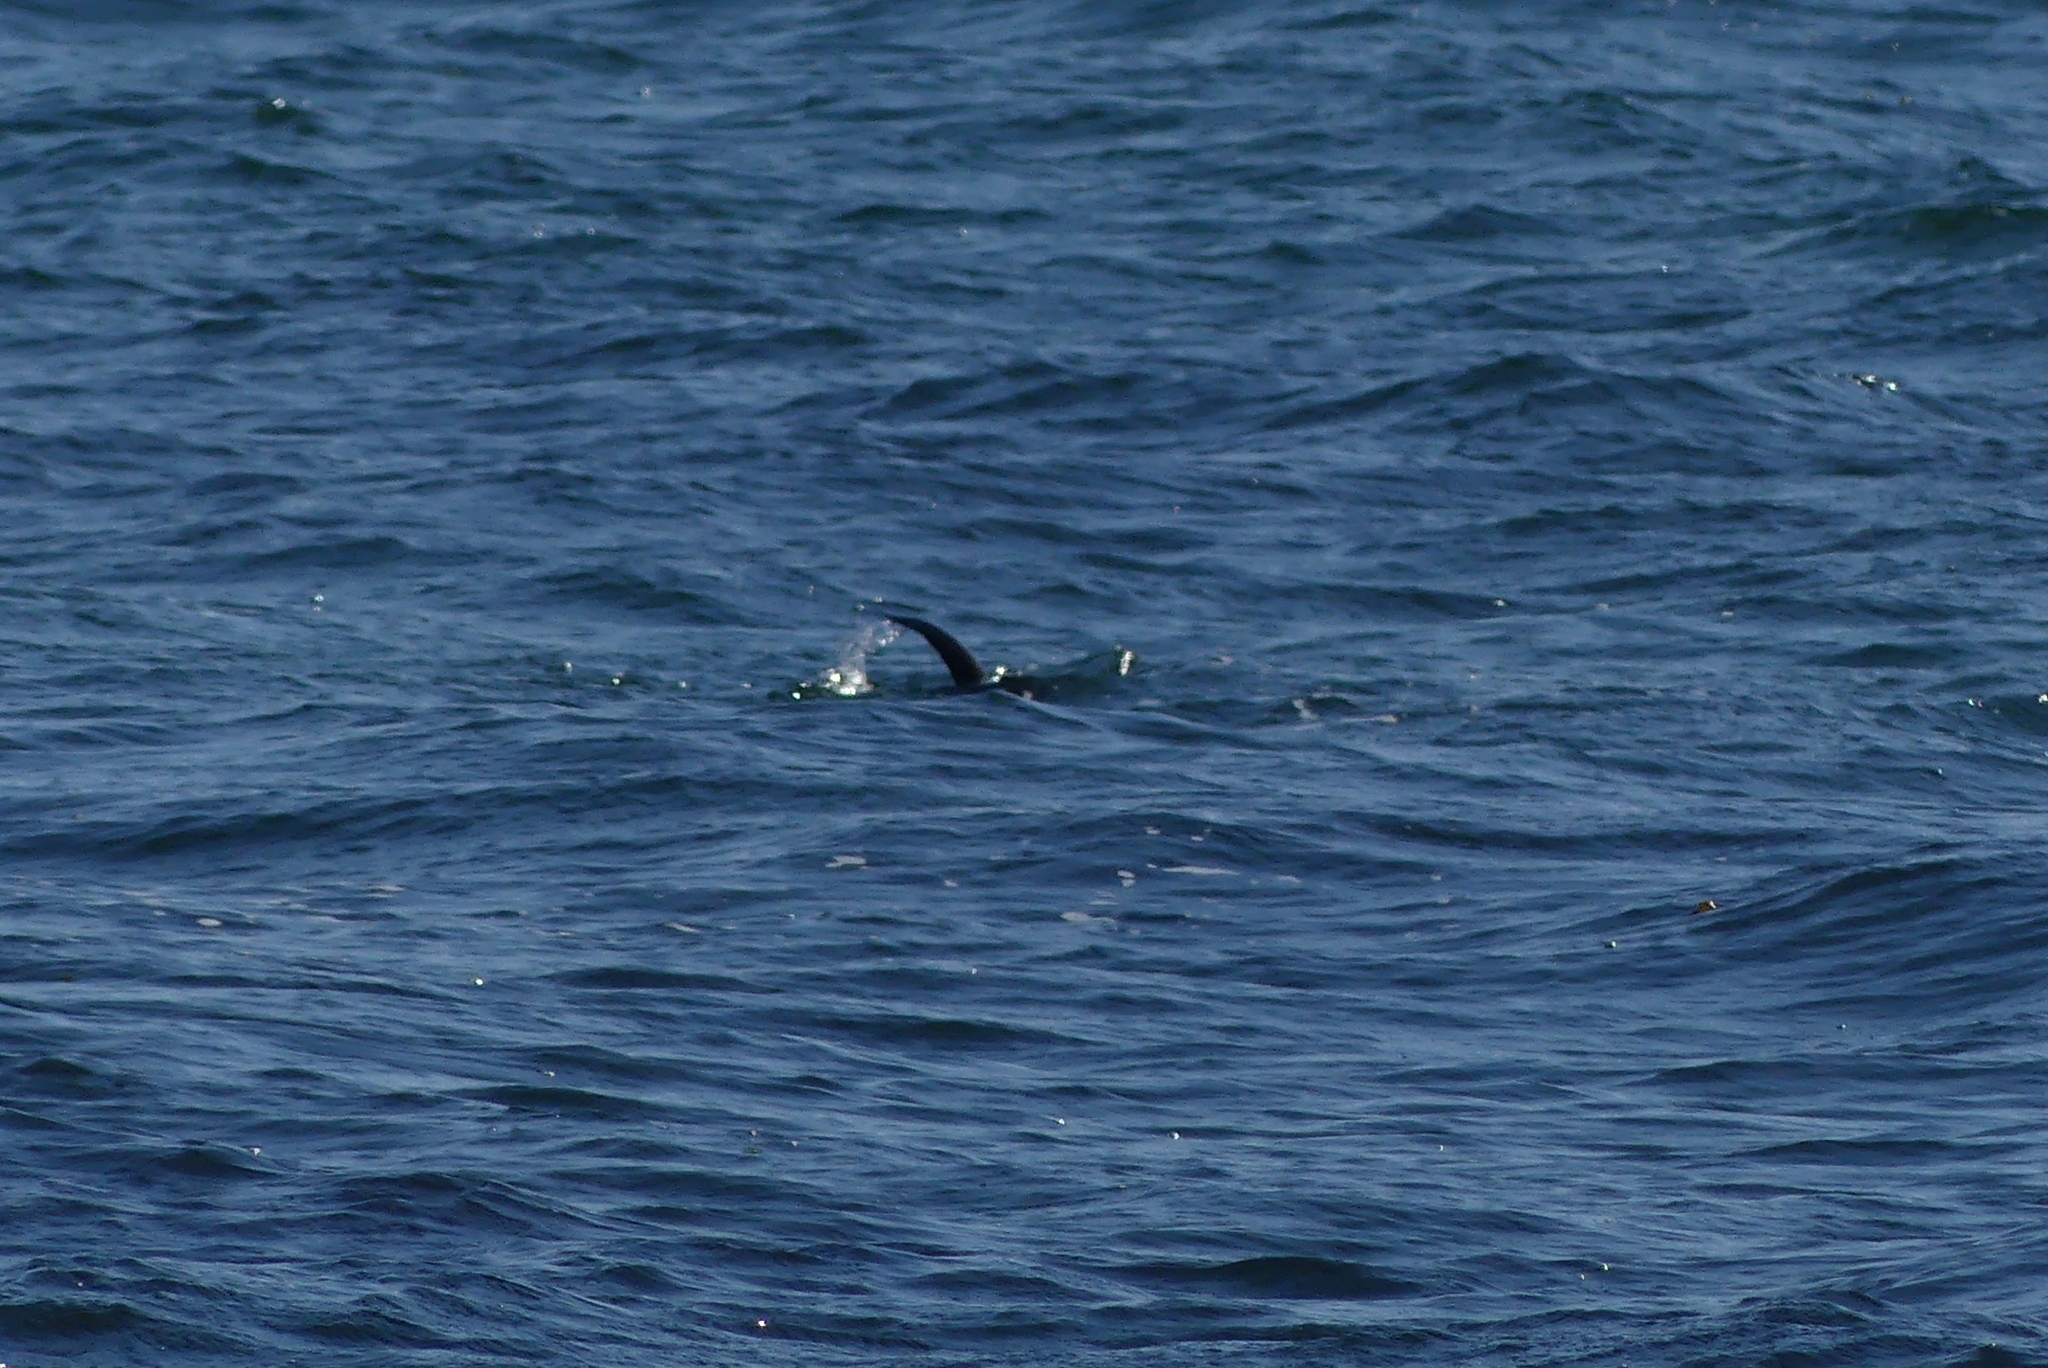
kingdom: Animalia
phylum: Chordata
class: Mammalia
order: Carnivora
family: Mustelidae
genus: Lontra
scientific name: Lontra canadensis
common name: North american river otter
